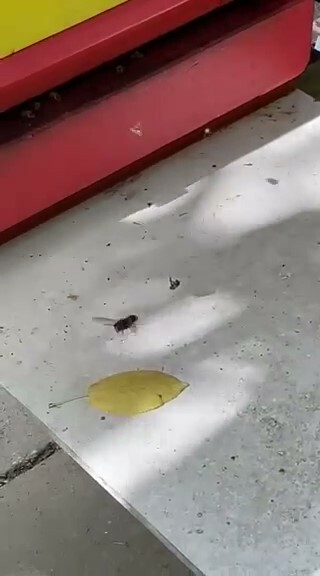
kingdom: Animalia
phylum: Arthropoda
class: Insecta
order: Hymenoptera
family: Vespidae
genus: Vespa
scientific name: Vespa velutina
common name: Asian hornet
